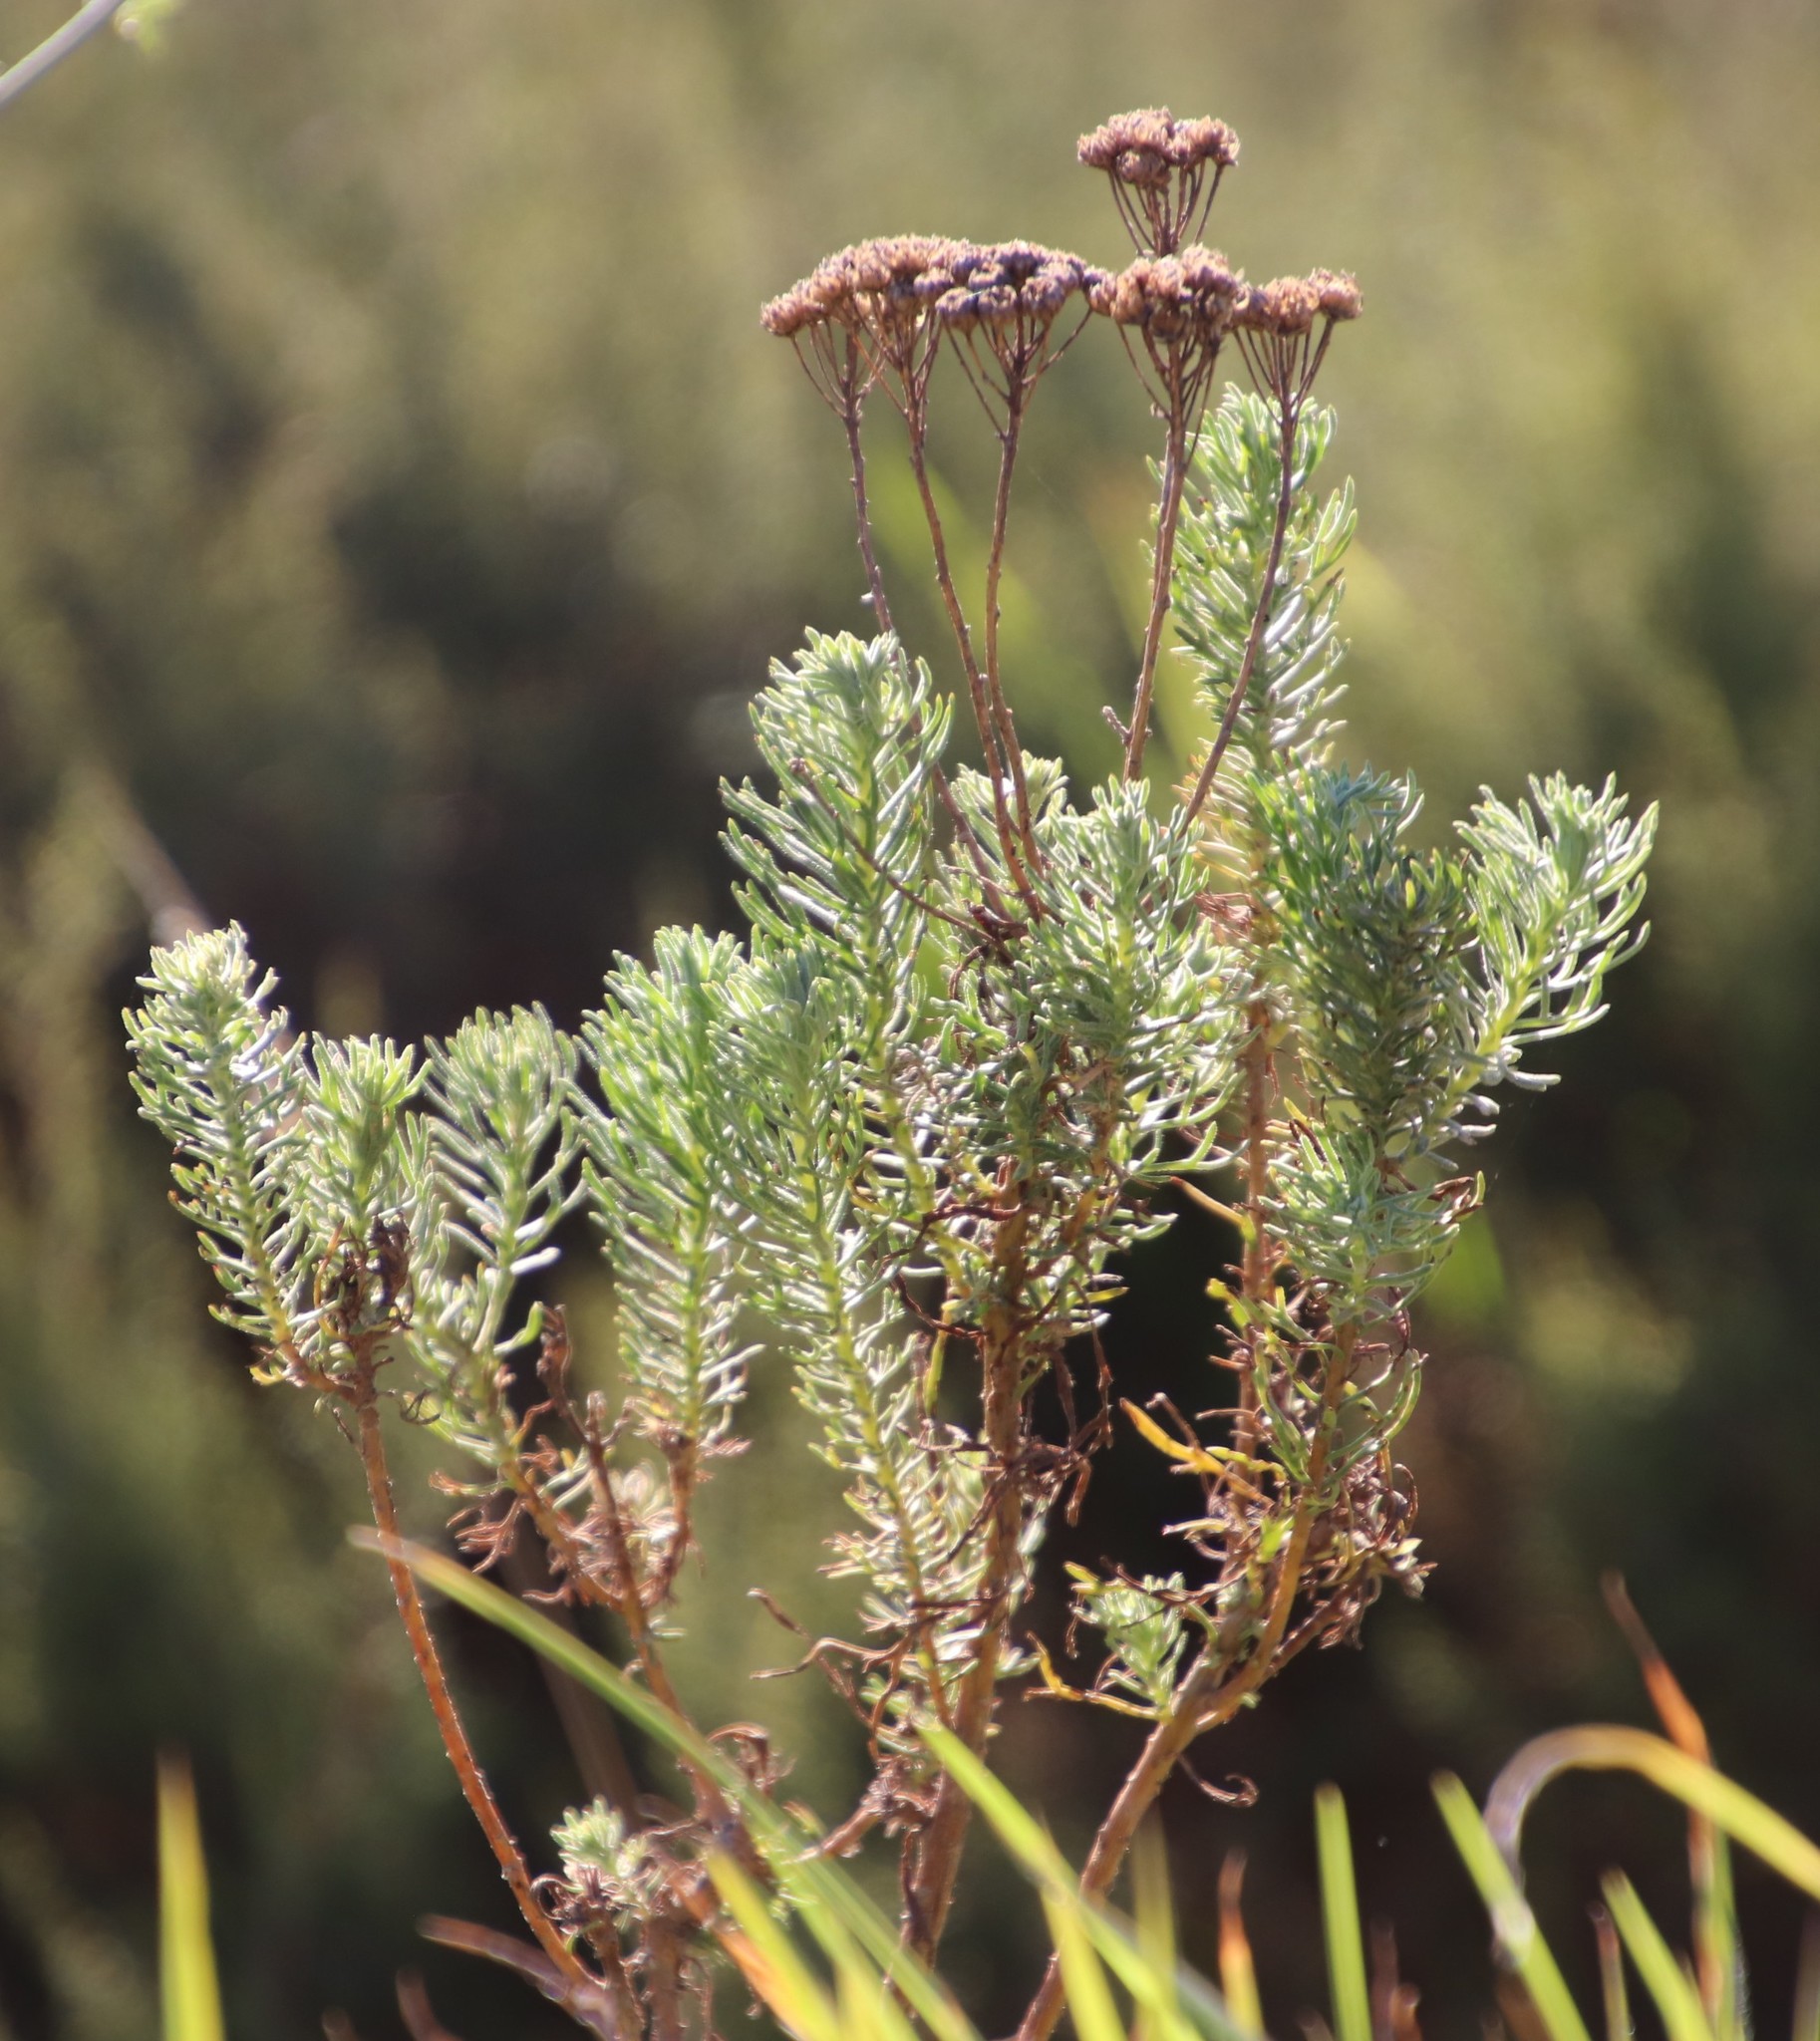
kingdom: Plantae
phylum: Tracheophyta
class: Magnoliopsida
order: Asterales
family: Asteraceae
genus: Athanasia
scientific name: Athanasia trifurcata
